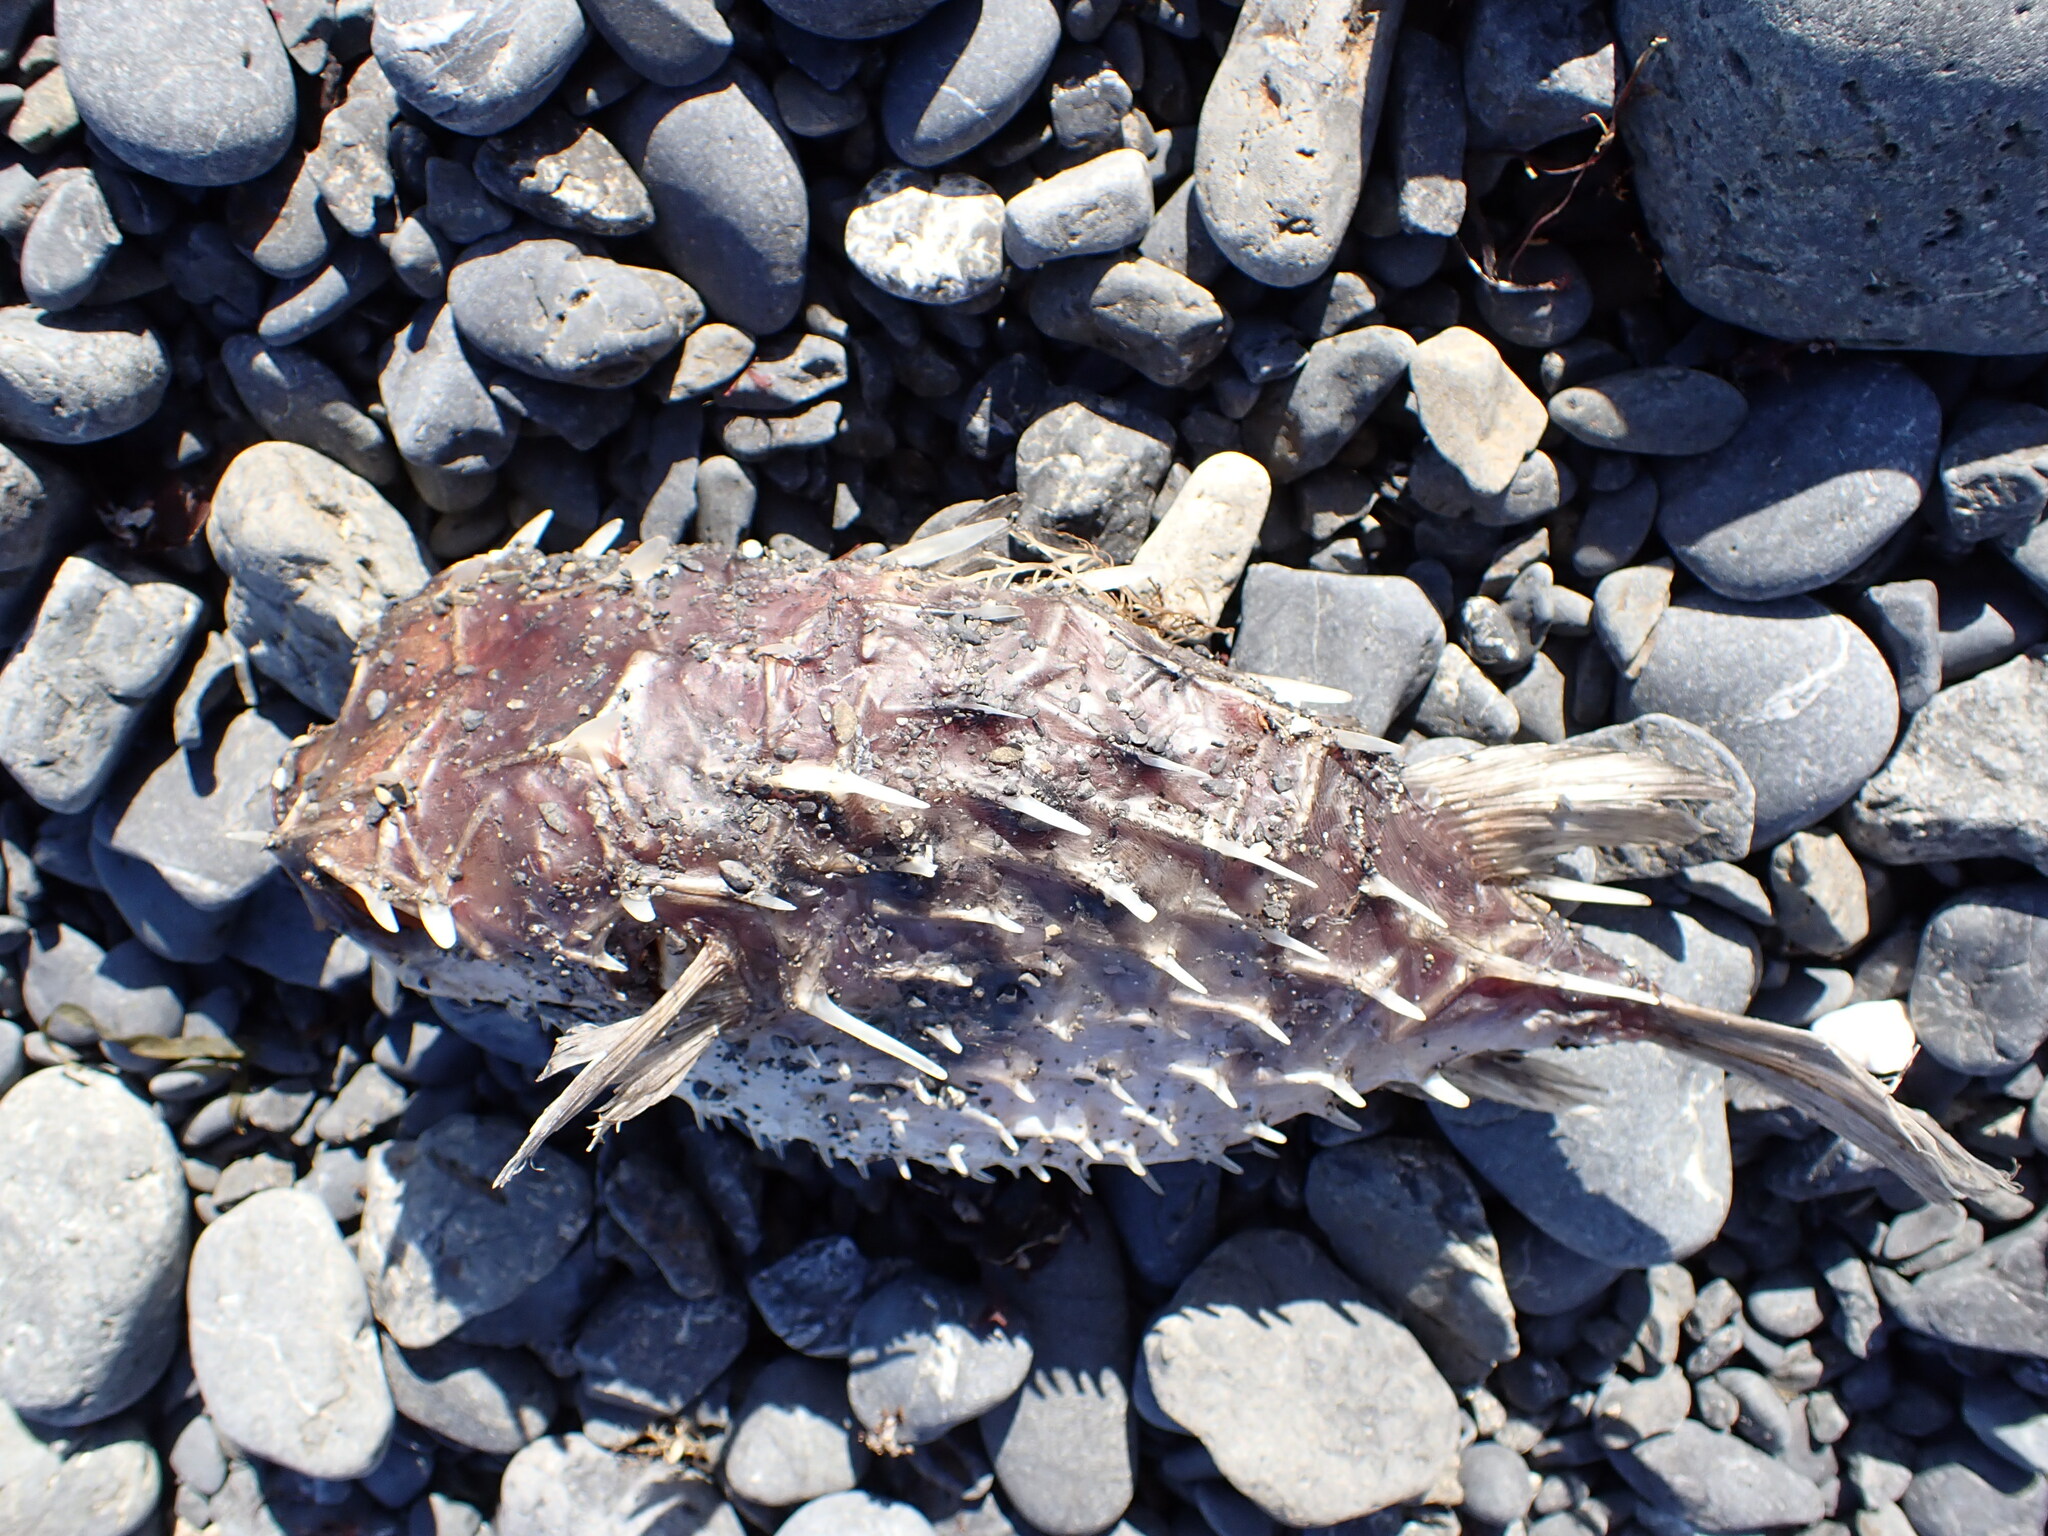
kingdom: Animalia
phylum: Chordata
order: Tetraodontiformes
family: Diodontidae
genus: Allomycterus
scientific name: Allomycterus pilatus
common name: No common name
